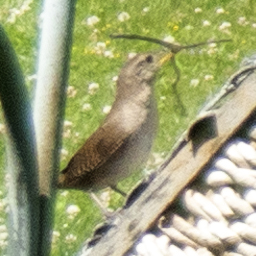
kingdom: Animalia
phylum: Chordata
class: Aves
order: Passeriformes
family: Troglodytidae
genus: Troglodytes
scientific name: Troglodytes aedon
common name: House wren
